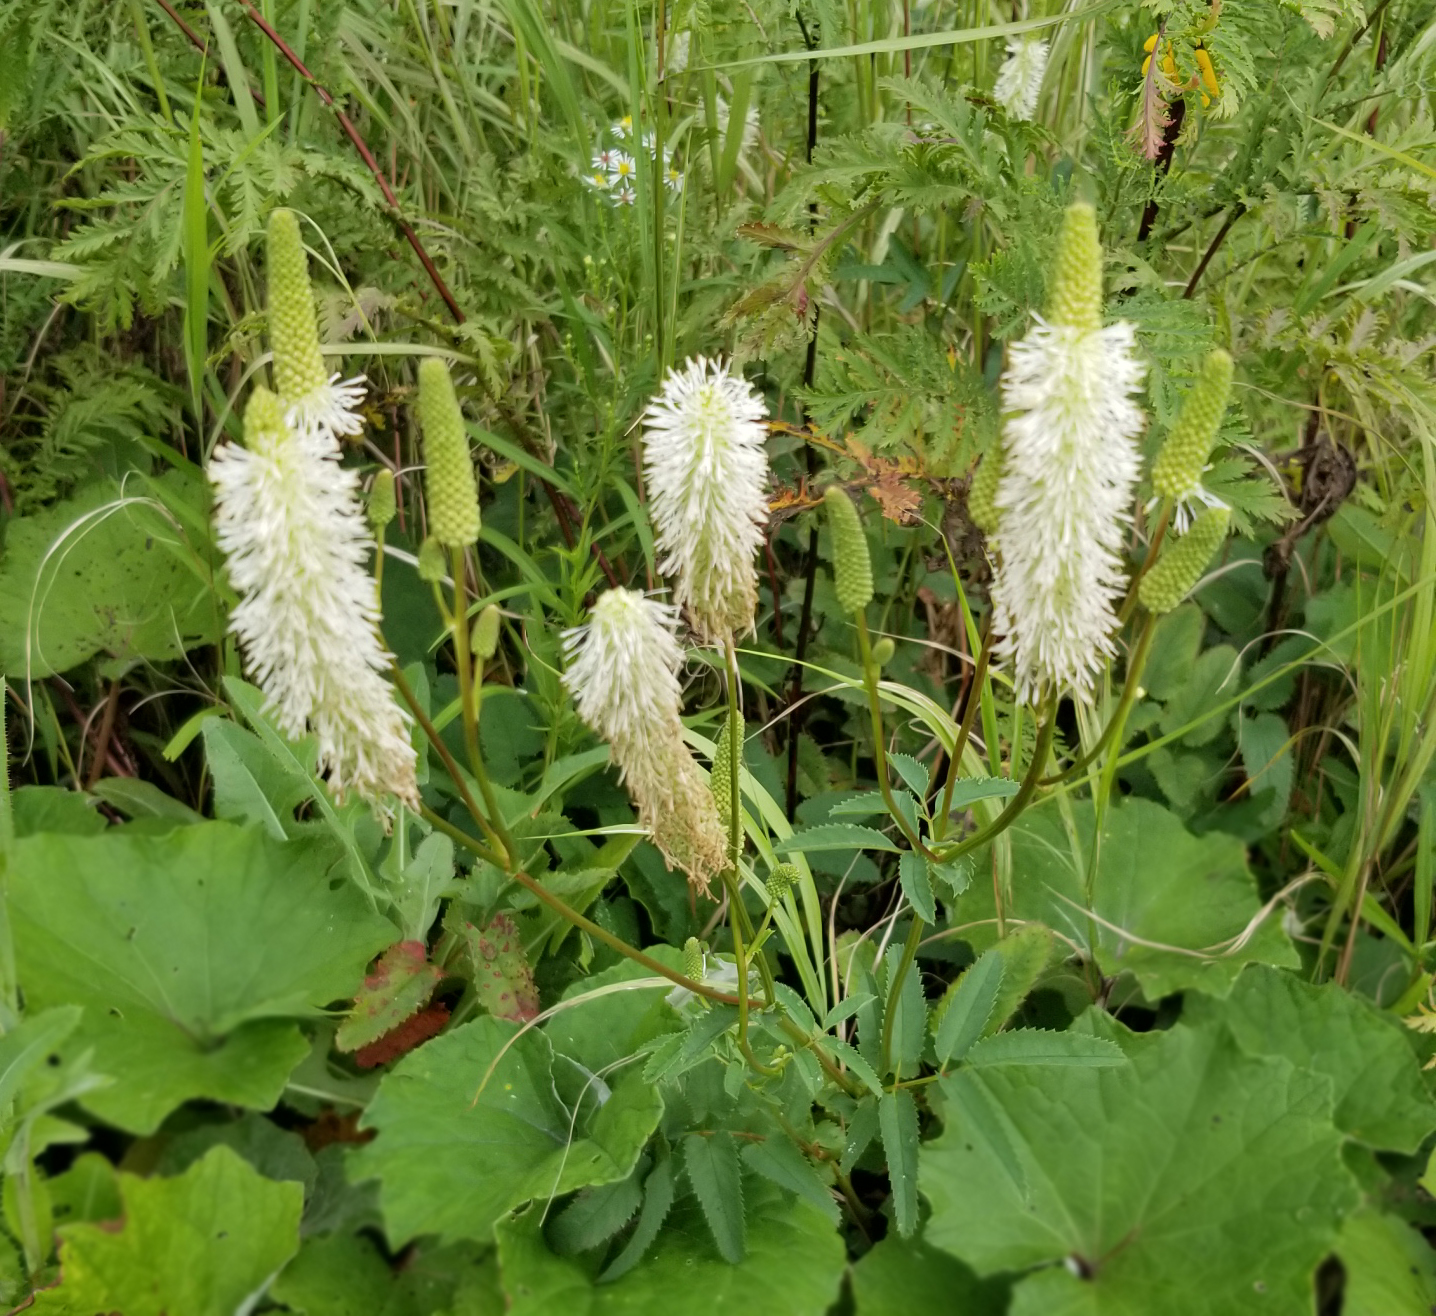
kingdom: Plantae
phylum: Tracheophyta
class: Magnoliopsida
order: Rosales
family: Rosaceae
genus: Sanguisorba
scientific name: Sanguisorba canadensis
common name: White burnet
